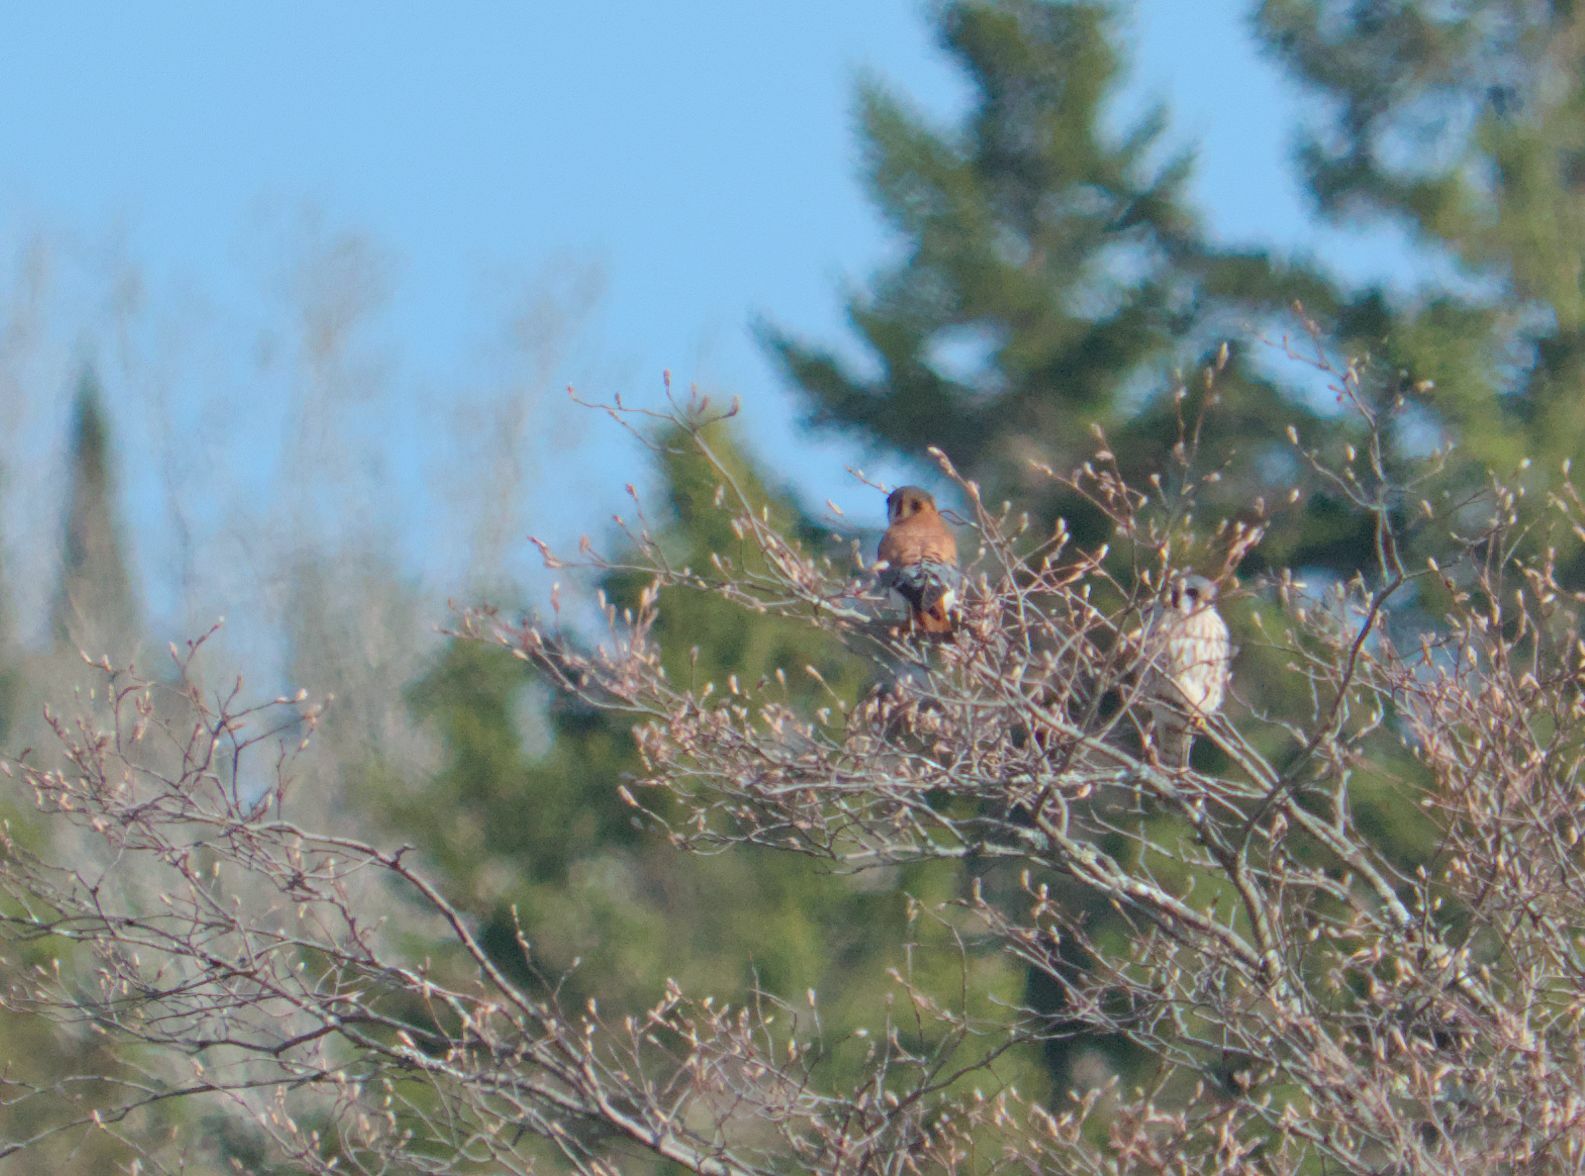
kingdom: Animalia
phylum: Chordata
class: Aves
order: Falconiformes
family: Falconidae
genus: Falco
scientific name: Falco sparverius
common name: American kestrel
